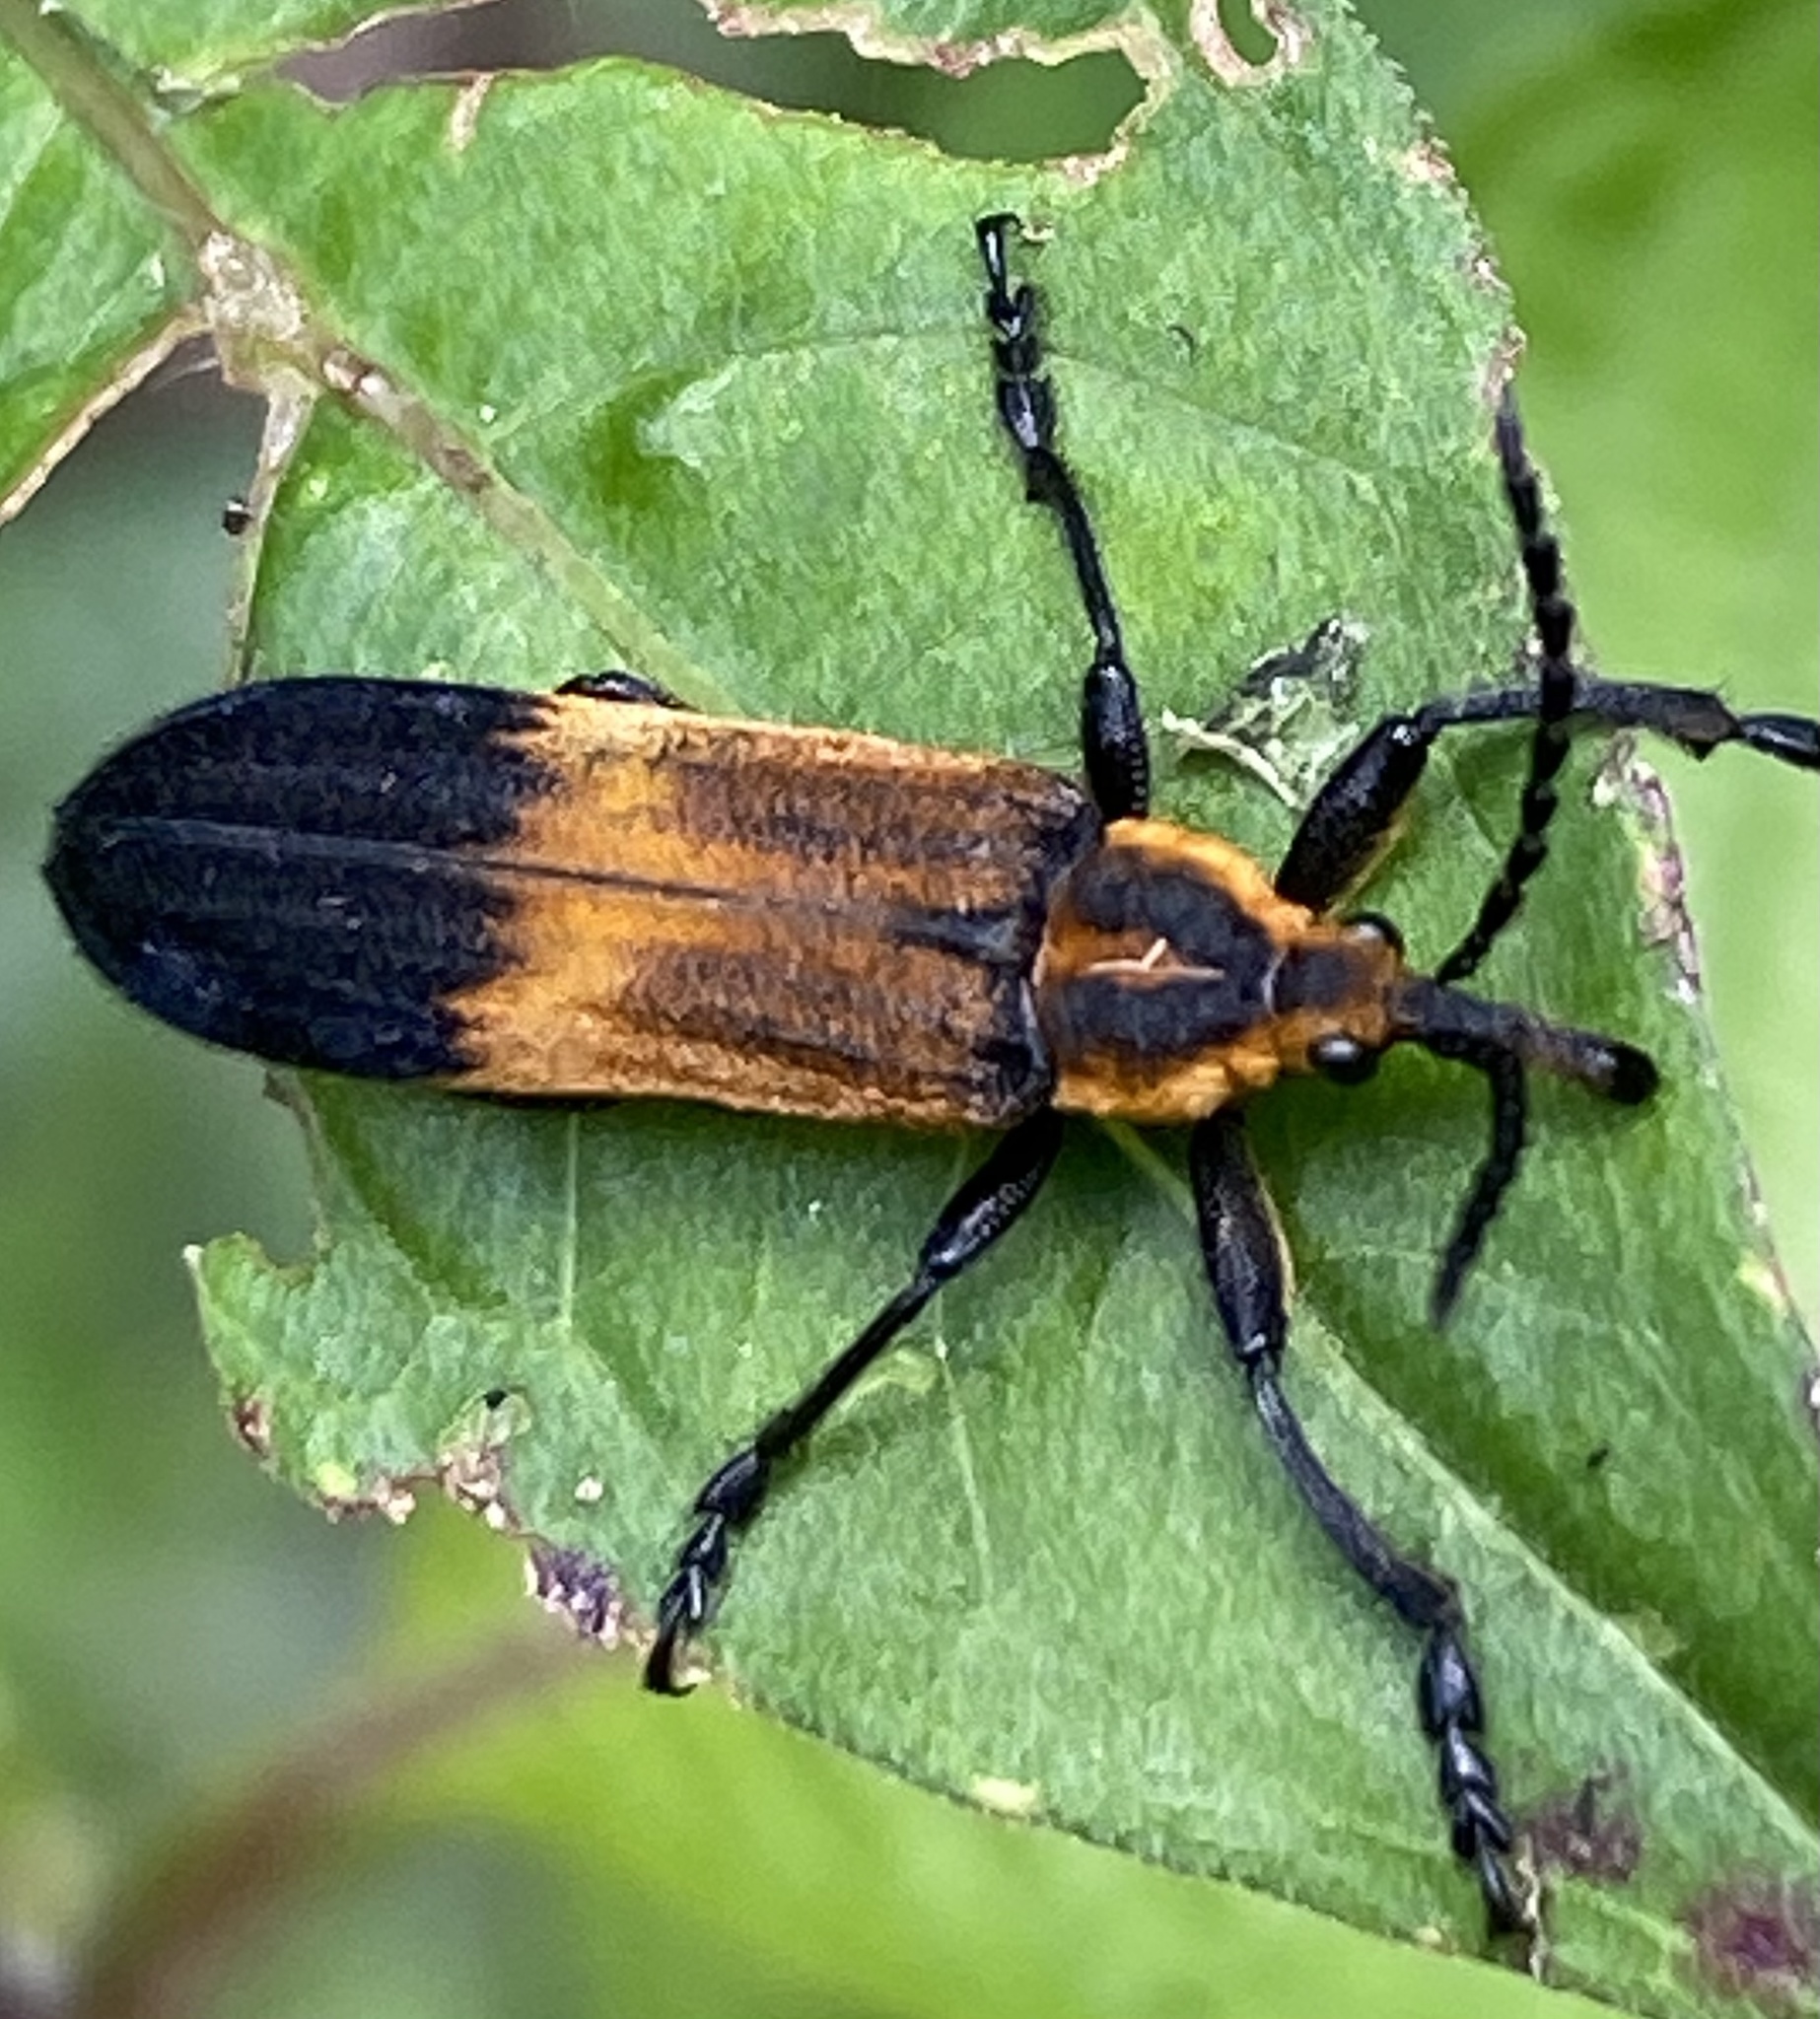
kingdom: Animalia
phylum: Arthropoda
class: Insecta
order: Coleoptera
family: Belidae
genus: Homalocerus
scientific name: Homalocerus lyciformis
